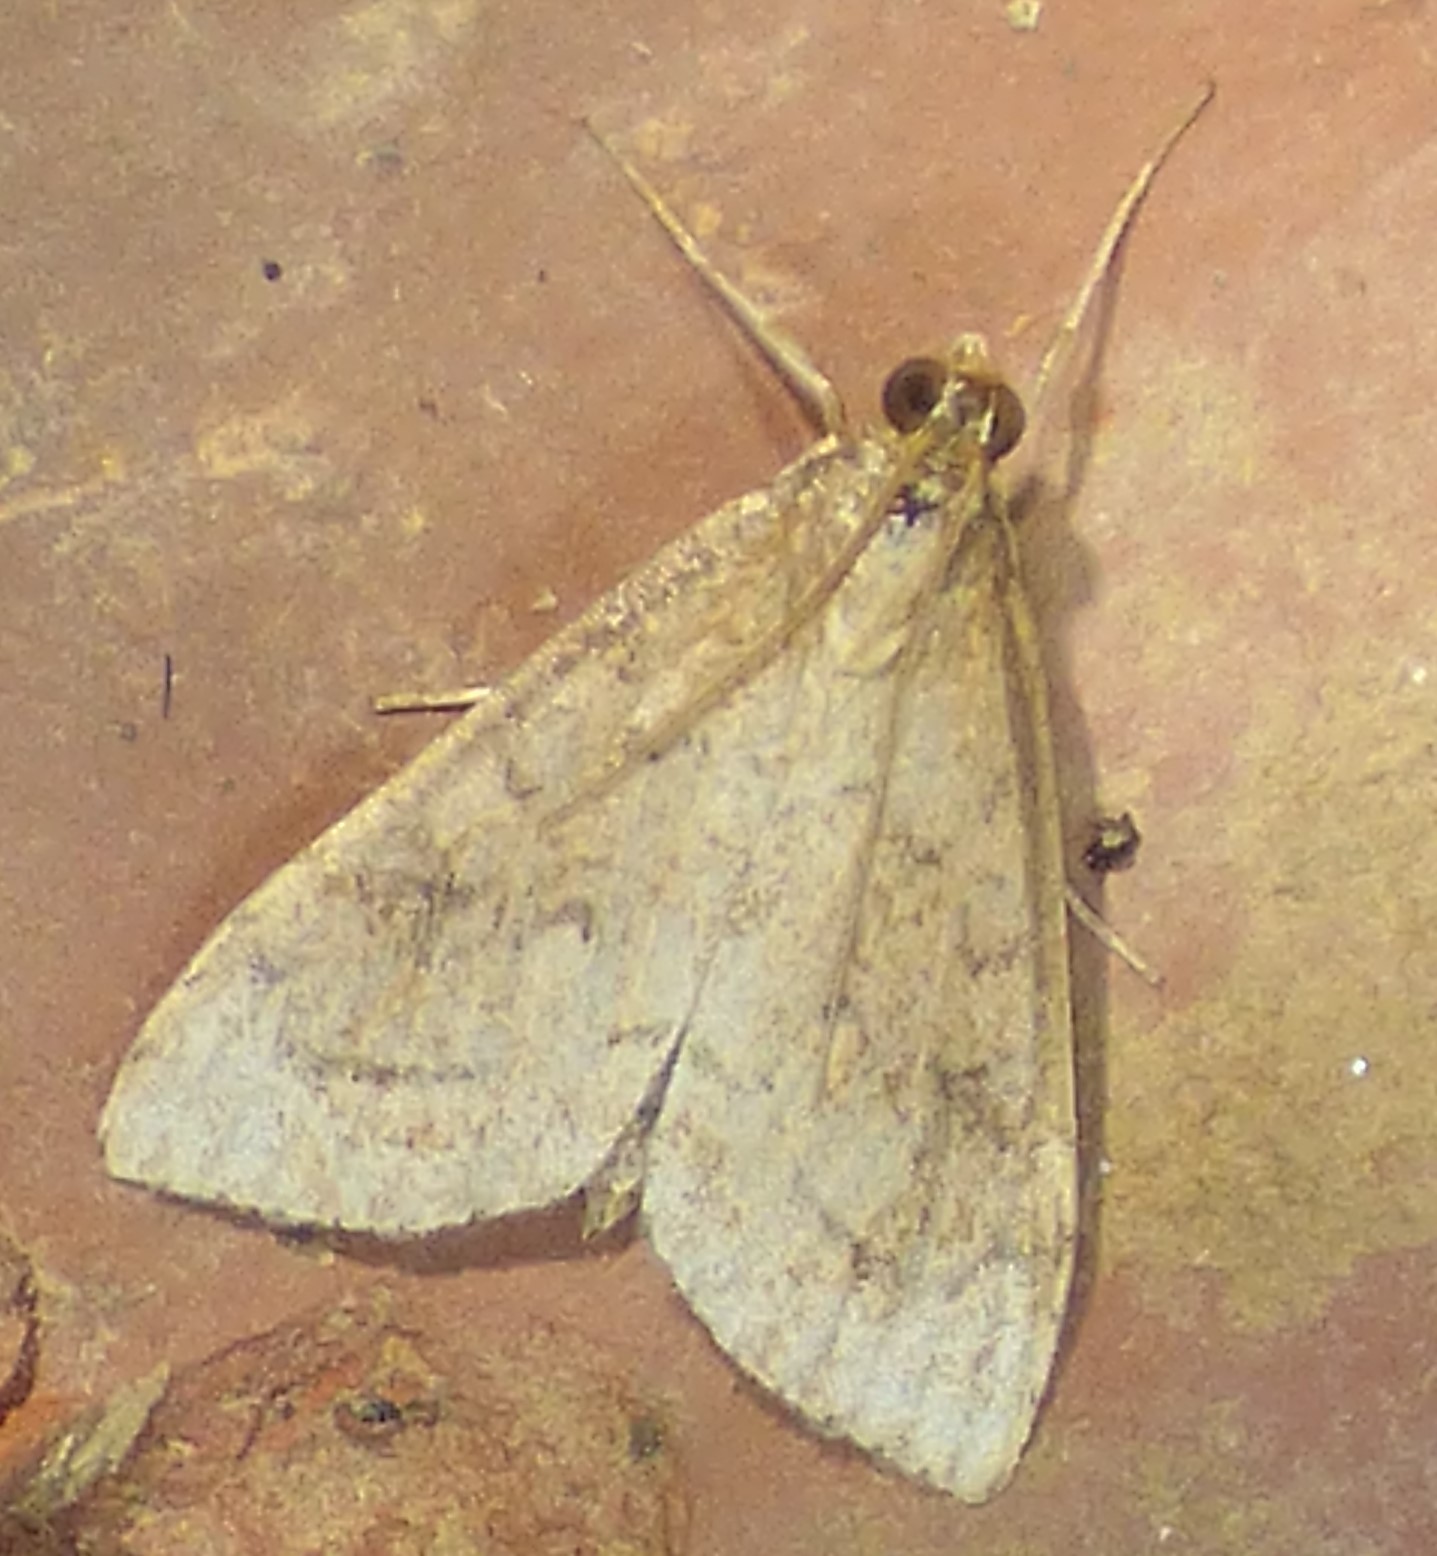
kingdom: Animalia
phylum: Arthropoda
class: Insecta
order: Lepidoptera
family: Crambidae
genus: Udea
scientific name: Udea rubigalis
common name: Celery leaftier moth
